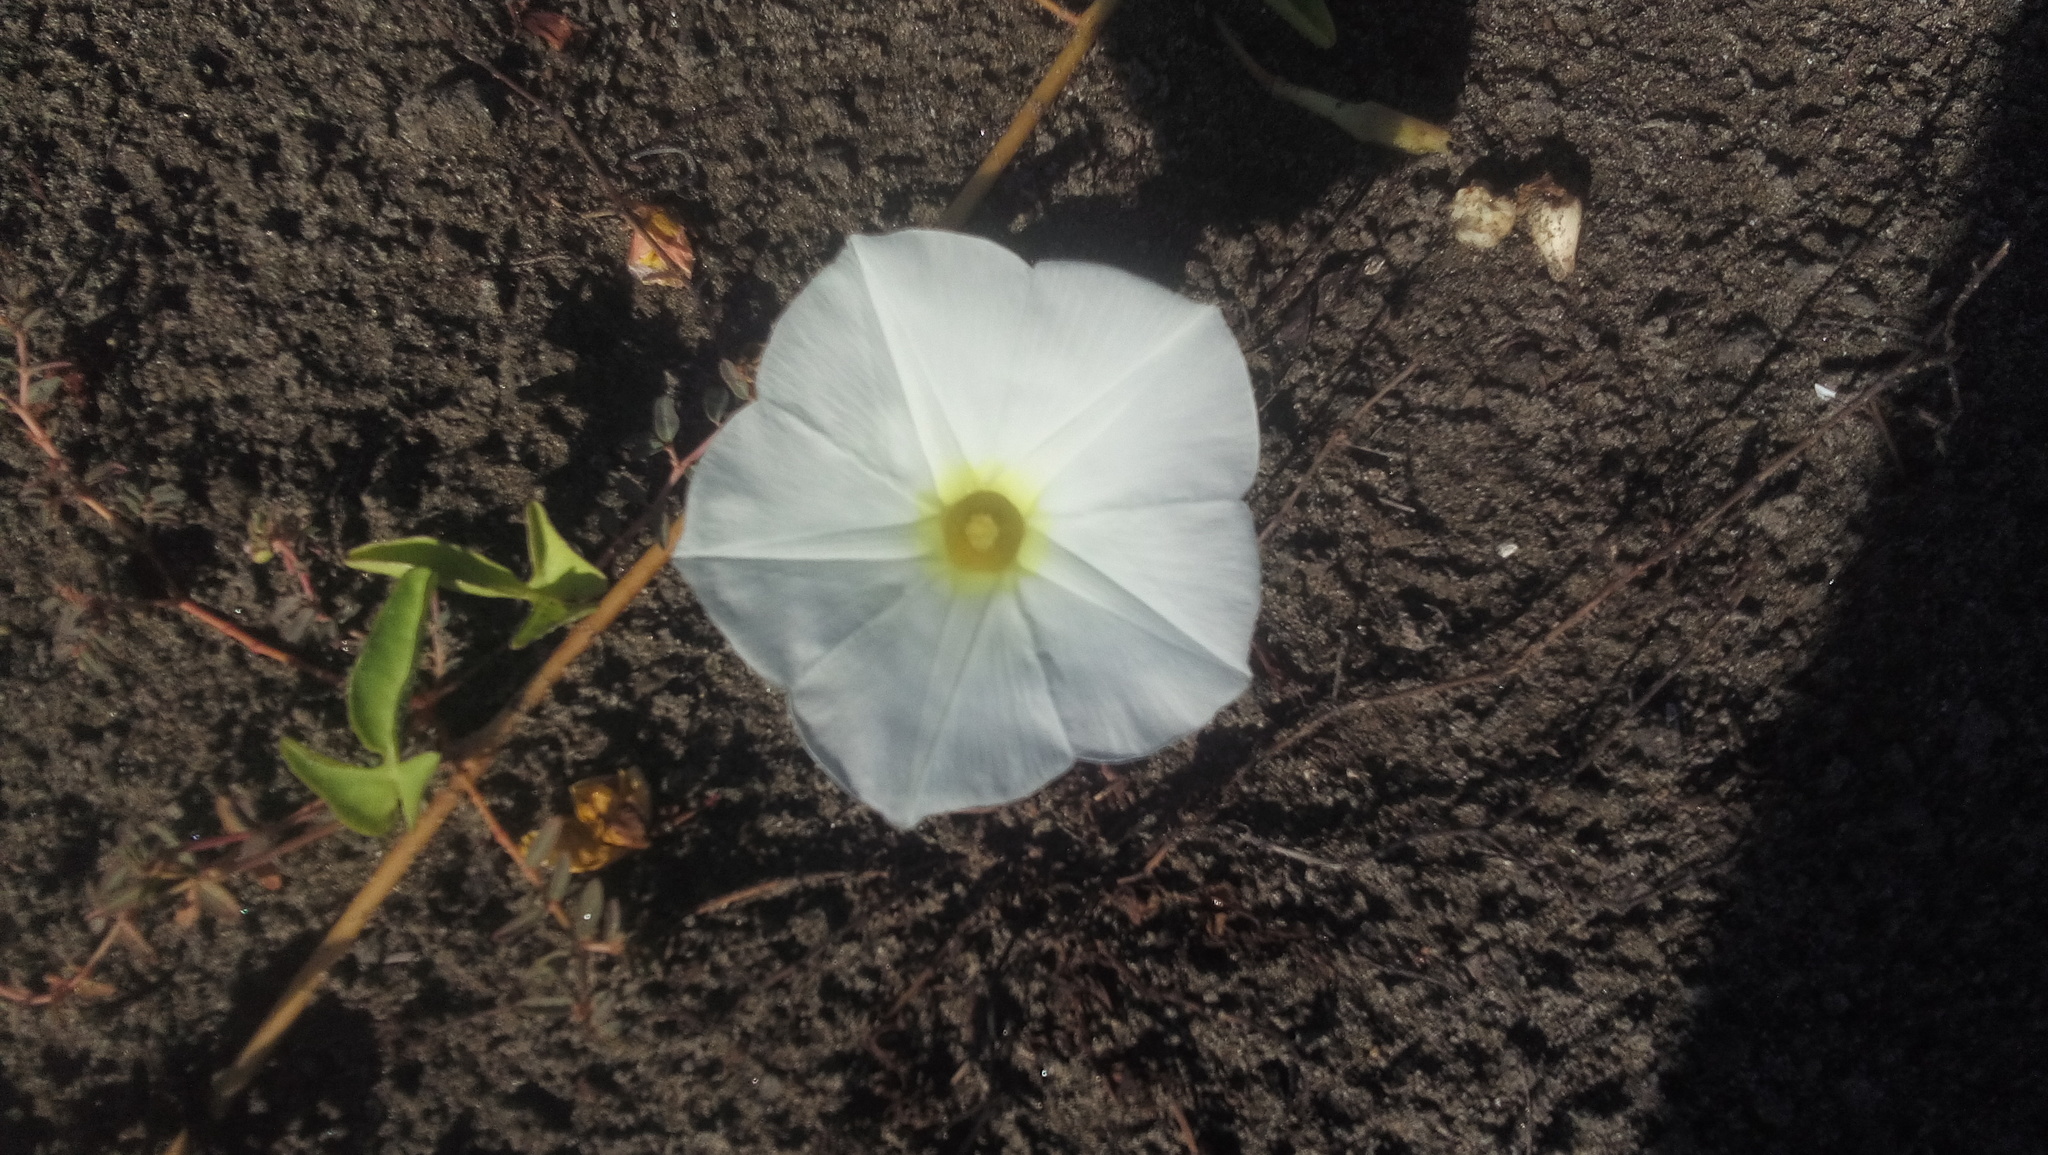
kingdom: Plantae
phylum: Tracheophyta
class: Magnoliopsida
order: Solanales
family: Convolvulaceae
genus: Ipomoea
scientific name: Ipomoea imperati
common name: Fiddle-leaf morning-glory
